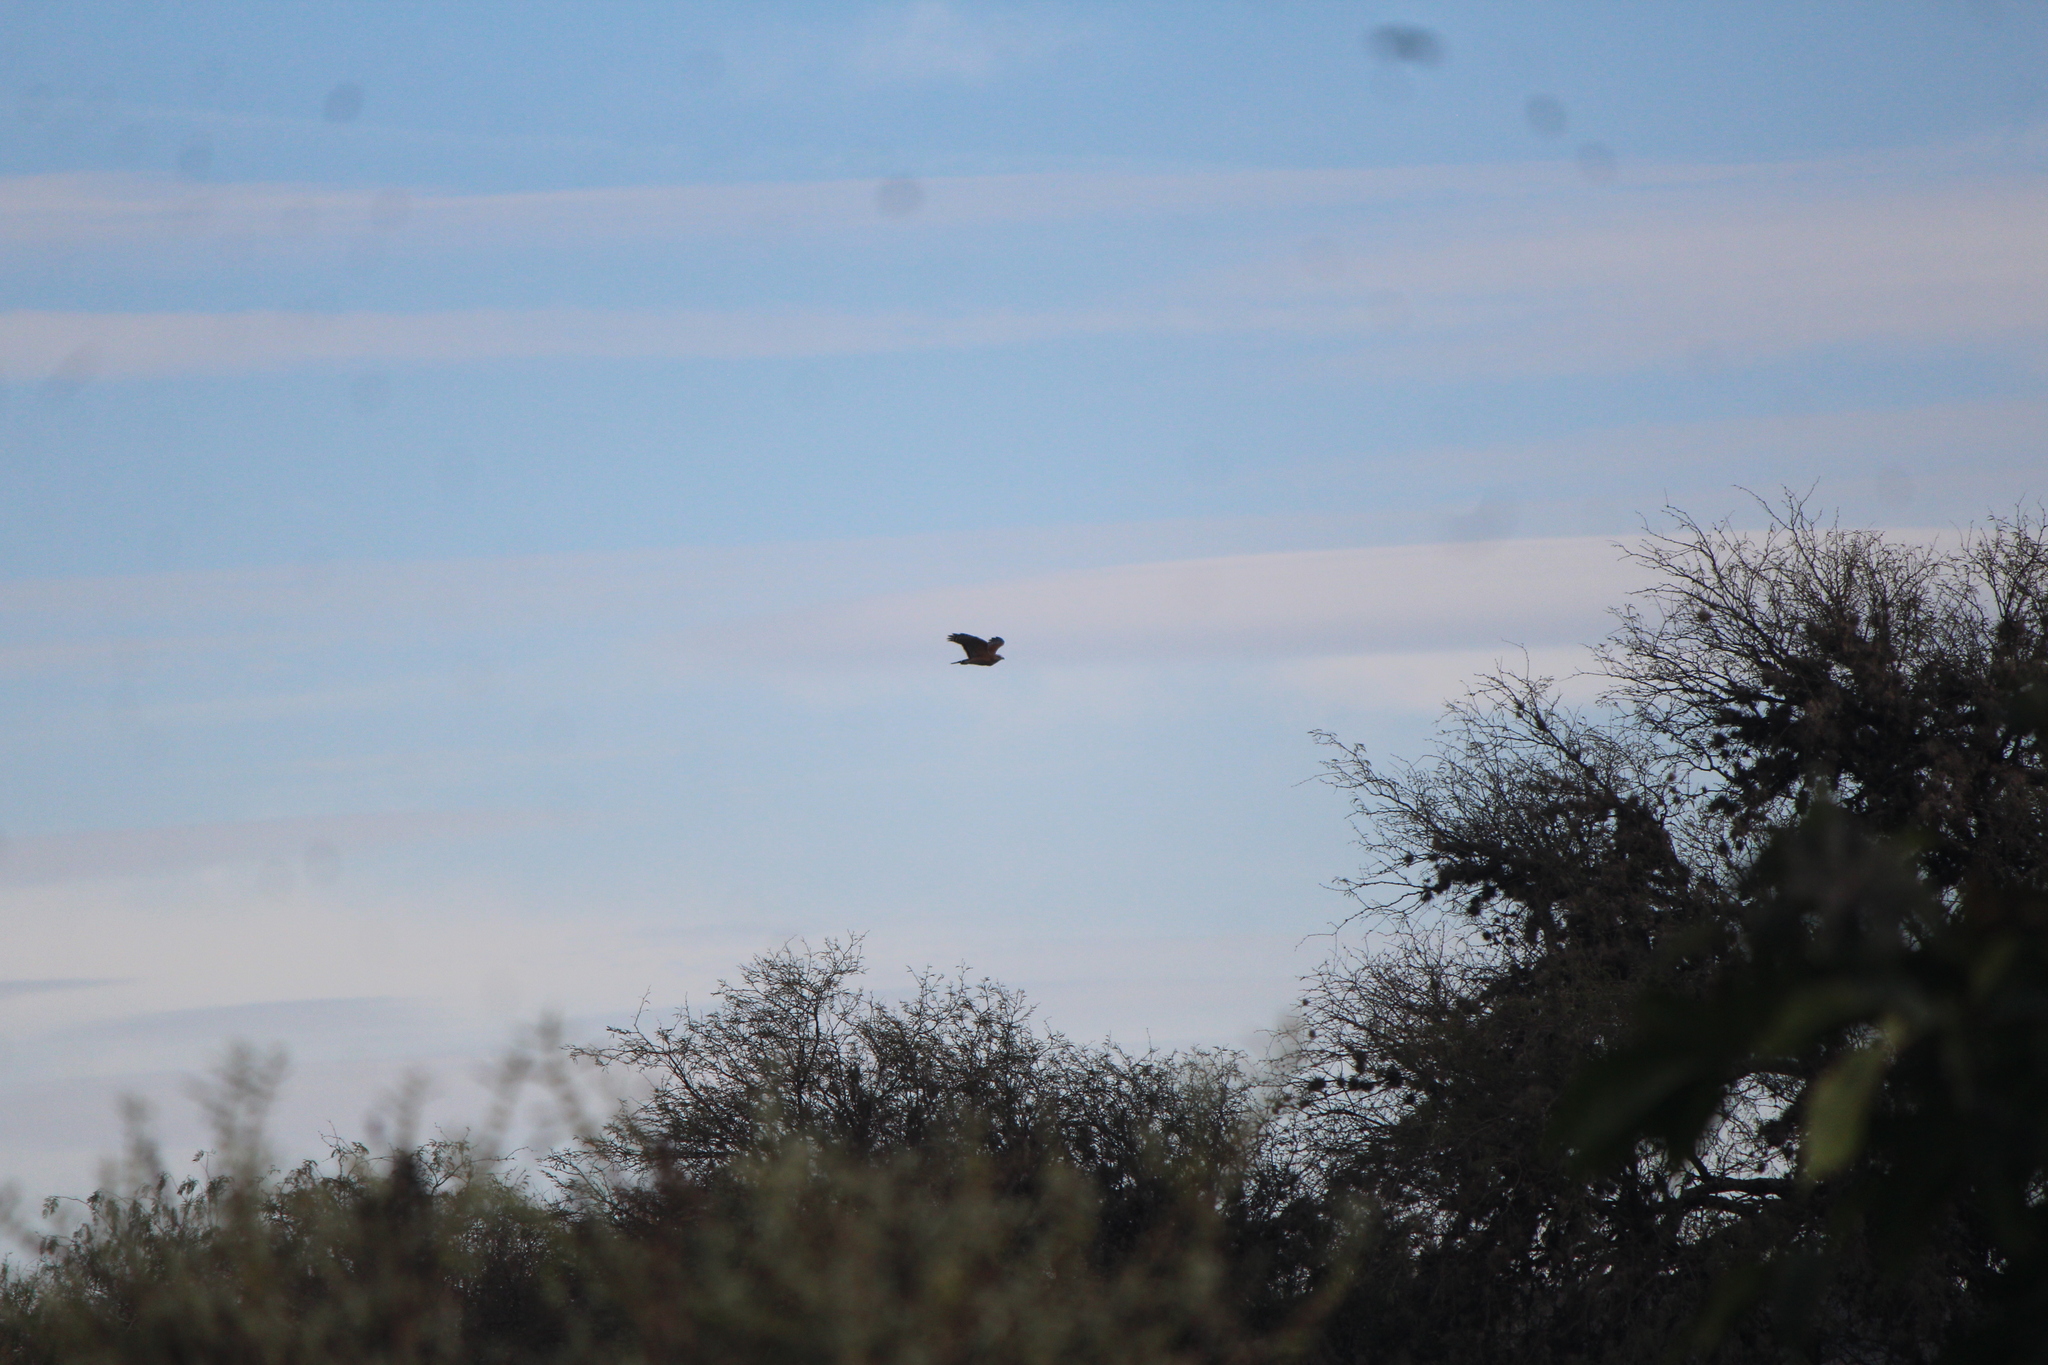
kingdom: Animalia
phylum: Chordata
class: Aves
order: Accipitriformes
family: Accipitridae
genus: Buteo
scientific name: Buteo lineatus
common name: Red-shouldered hawk
